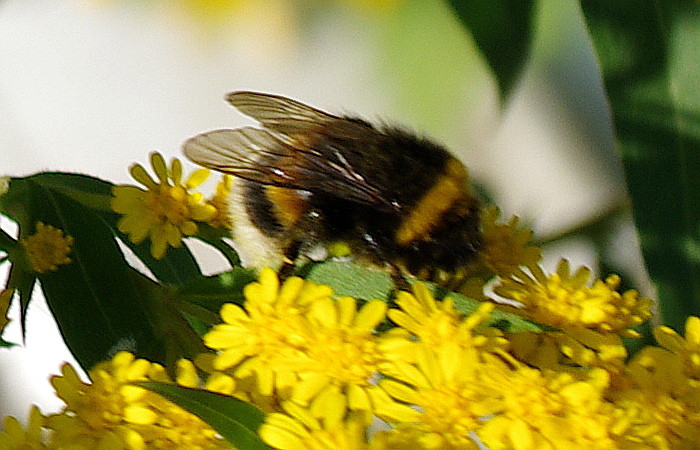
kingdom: Animalia
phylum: Arthropoda
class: Insecta
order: Hymenoptera
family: Apidae
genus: Bombus
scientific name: Bombus
